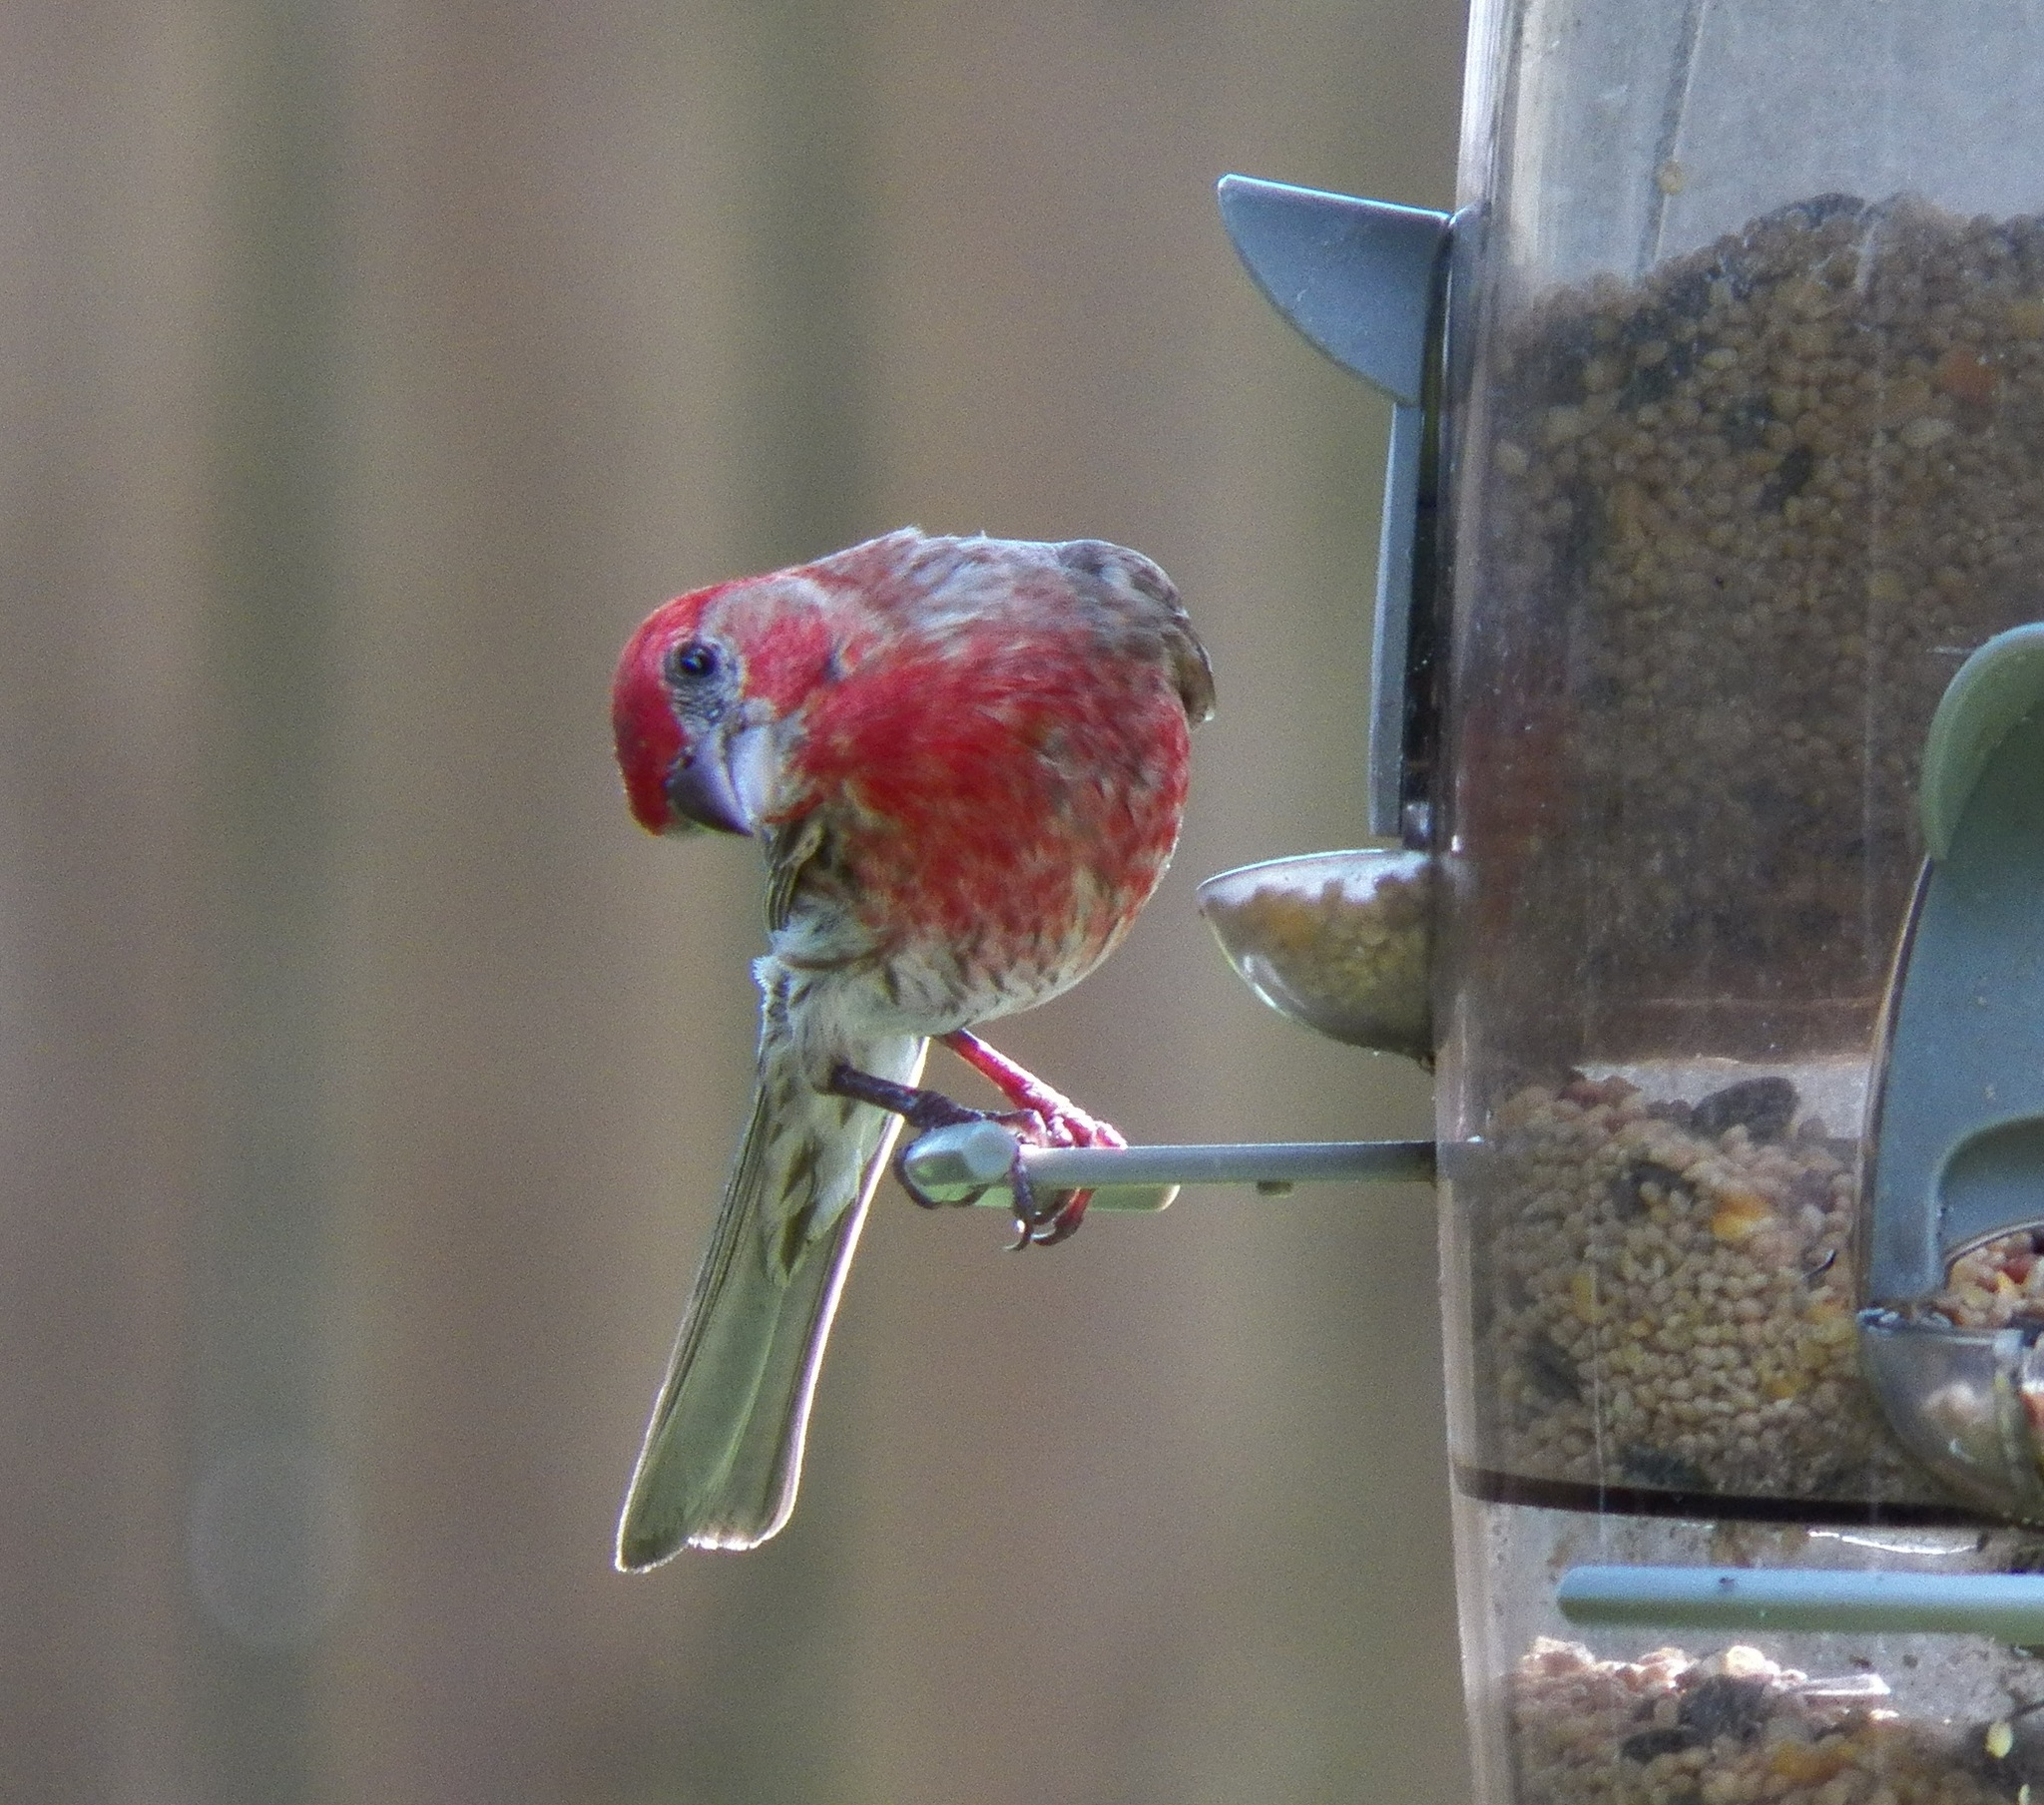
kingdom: Animalia
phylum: Chordata
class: Aves
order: Passeriformes
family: Fringillidae
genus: Haemorhous
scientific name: Haemorhous mexicanus
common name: House finch
